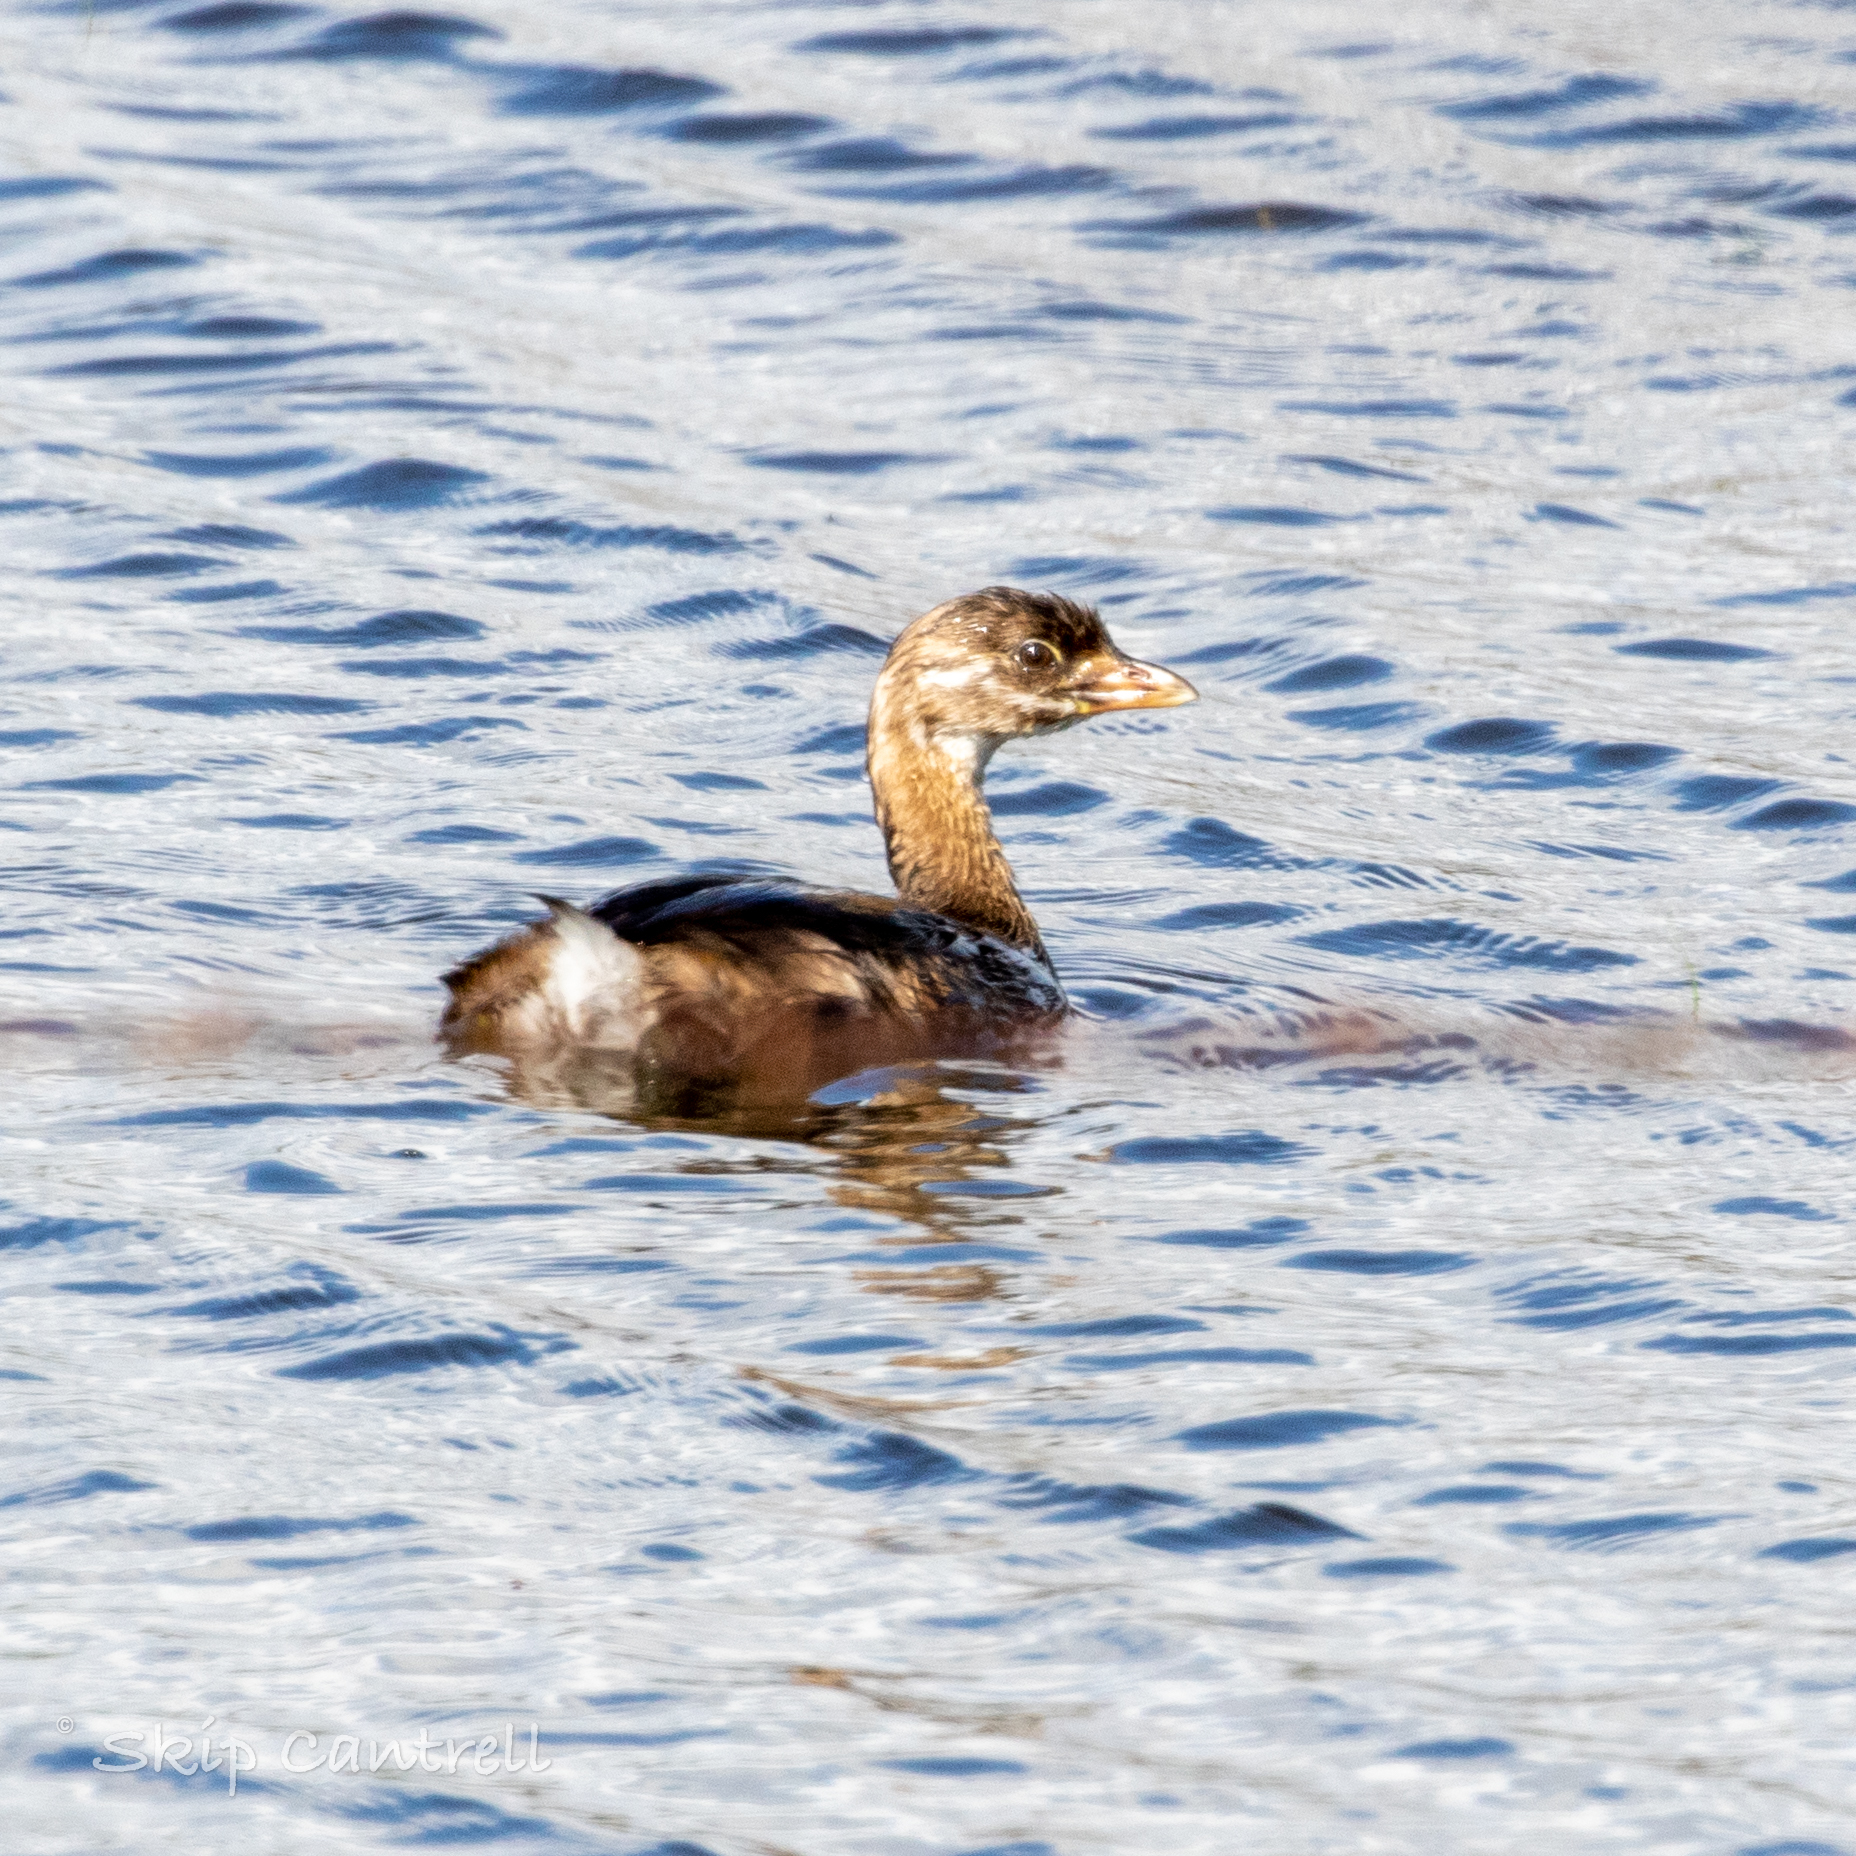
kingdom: Animalia
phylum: Chordata
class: Aves
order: Podicipediformes
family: Podicipedidae
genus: Podilymbus
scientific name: Podilymbus podiceps
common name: Pied-billed grebe
